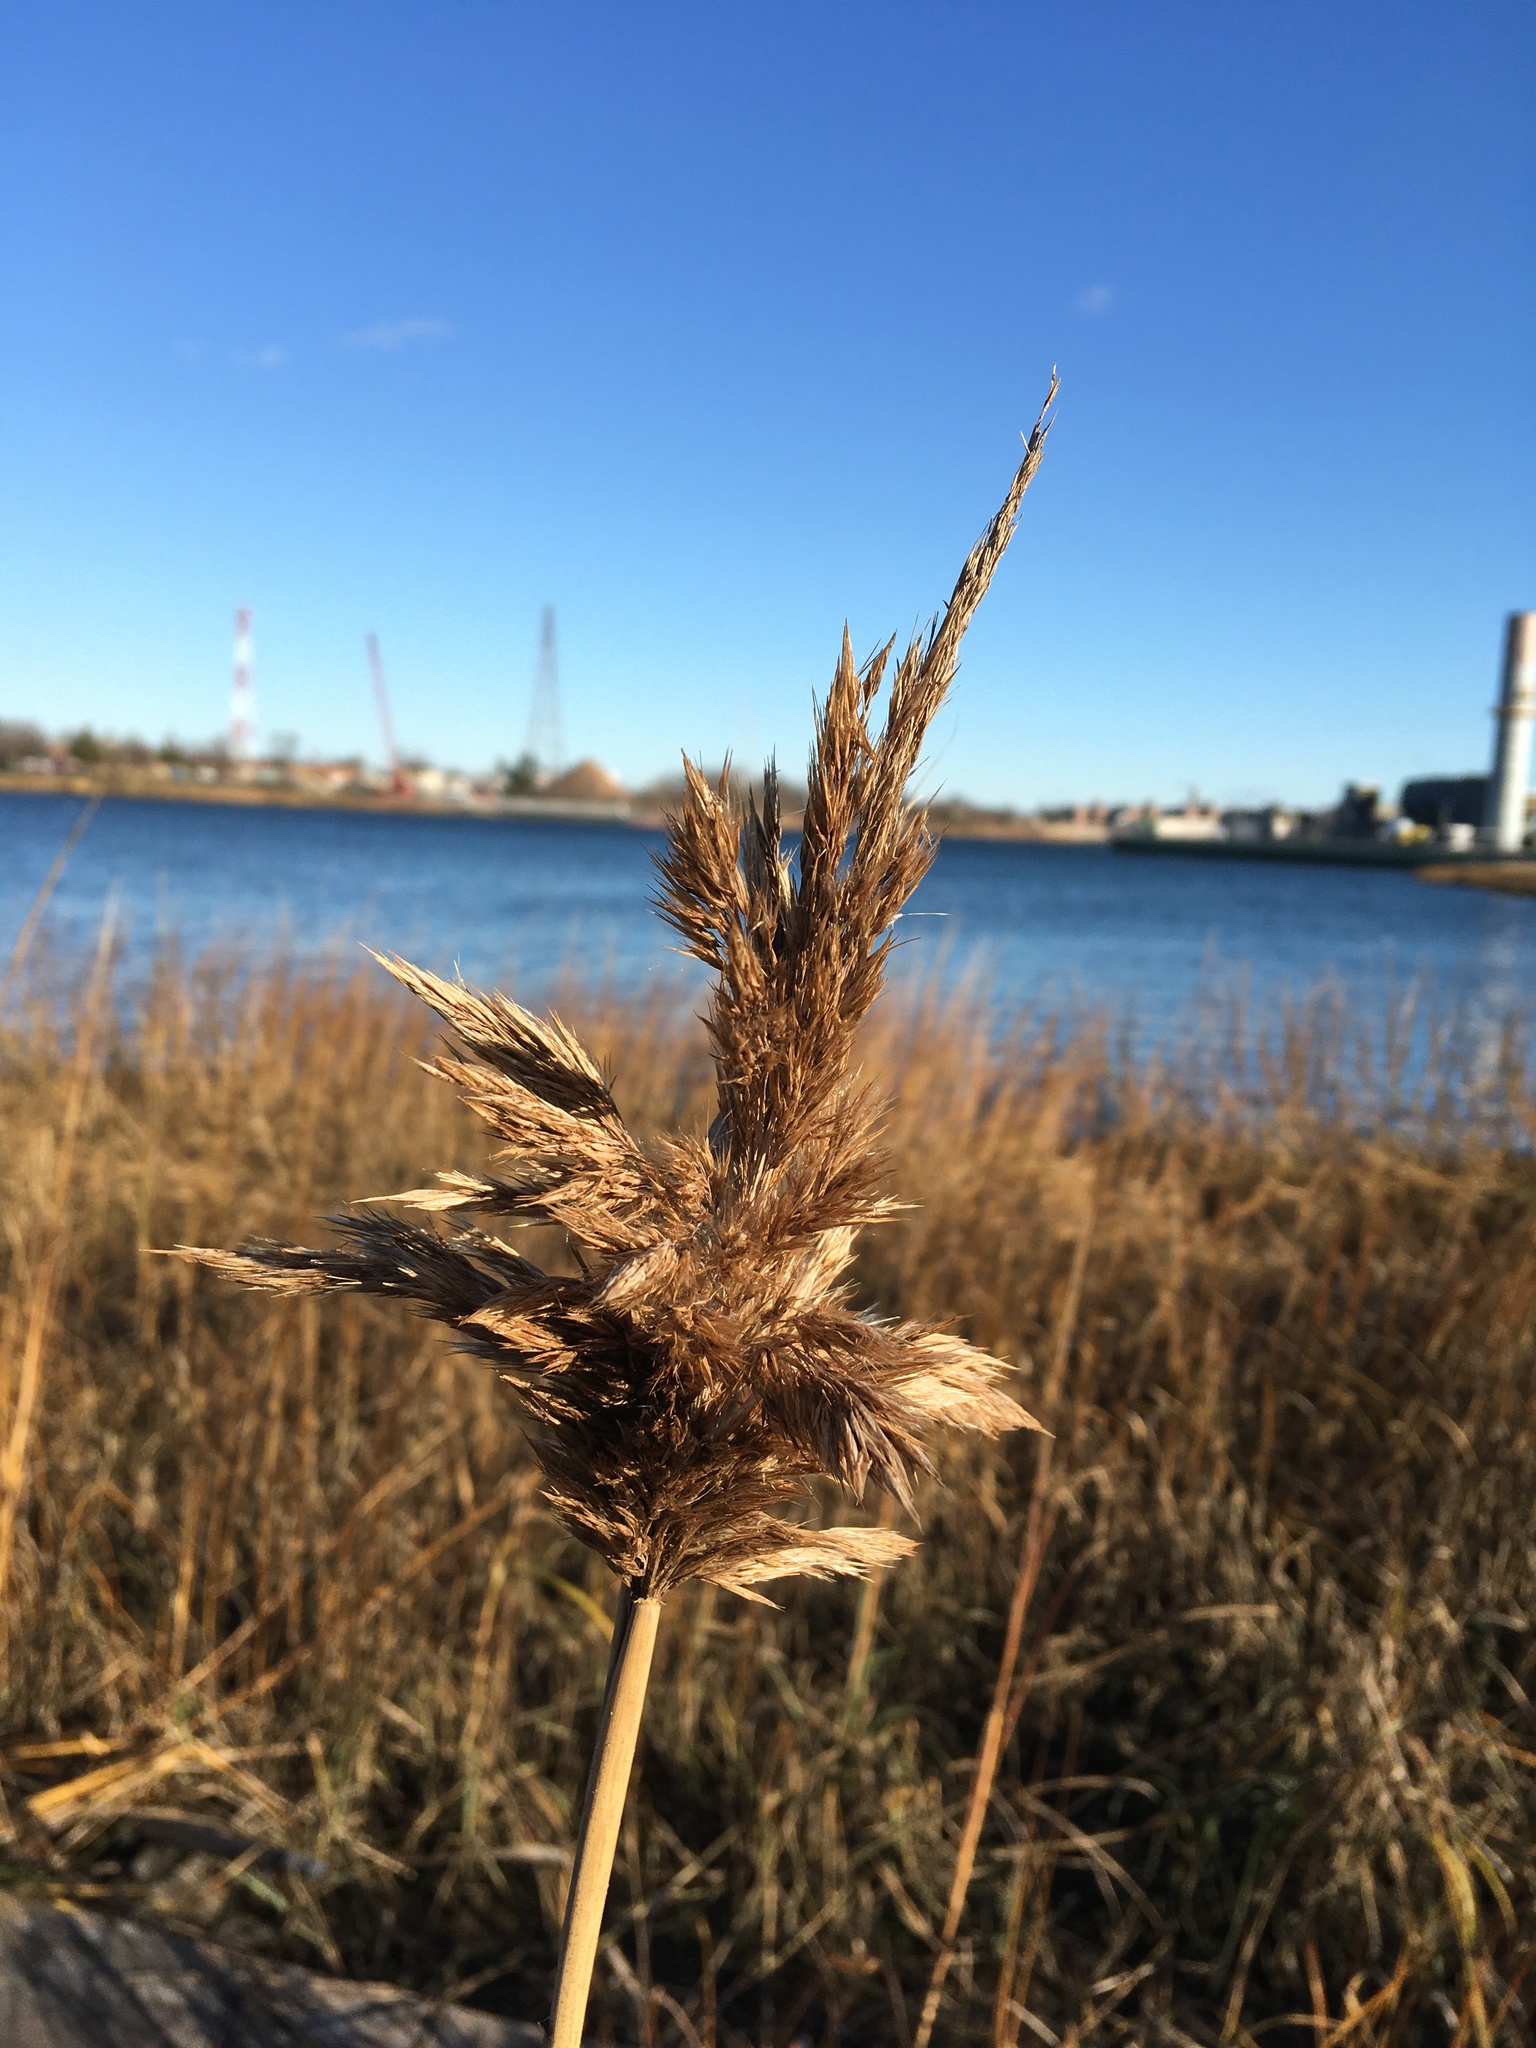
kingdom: Plantae
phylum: Tracheophyta
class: Liliopsida
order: Poales
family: Poaceae
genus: Phragmites
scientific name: Phragmites australis
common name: Common reed
